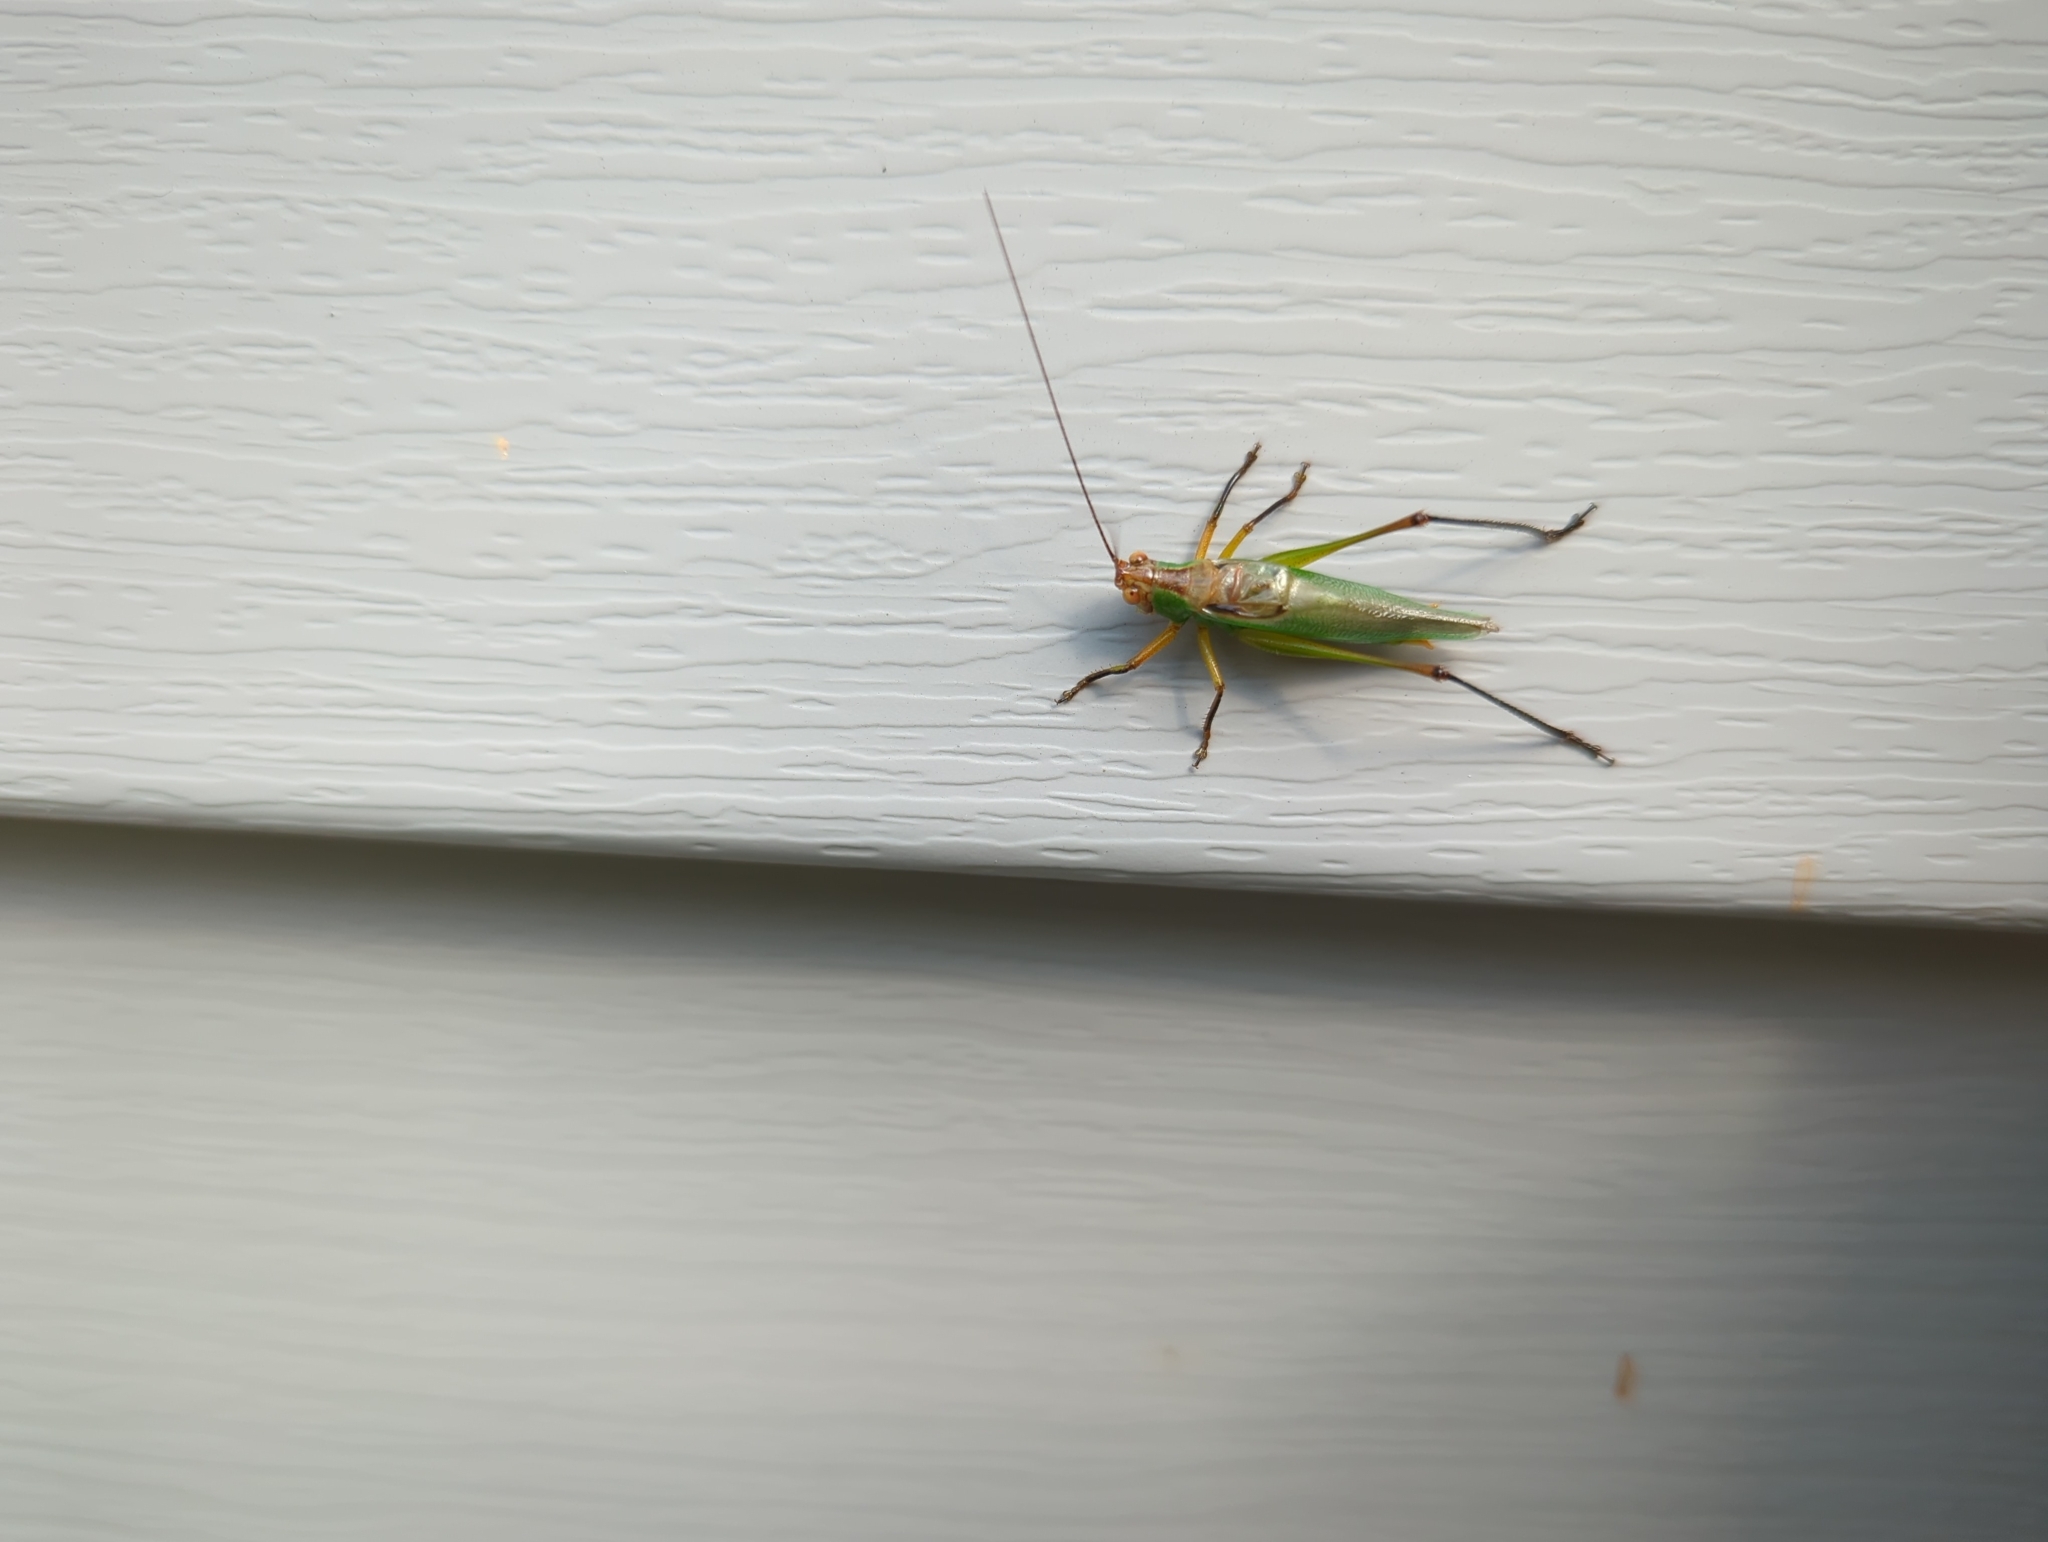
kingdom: Animalia
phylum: Arthropoda
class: Insecta
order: Orthoptera
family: Tettigoniidae
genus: Orchelimum
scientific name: Orchelimum nigripes
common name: Black-legged meadow katydid
